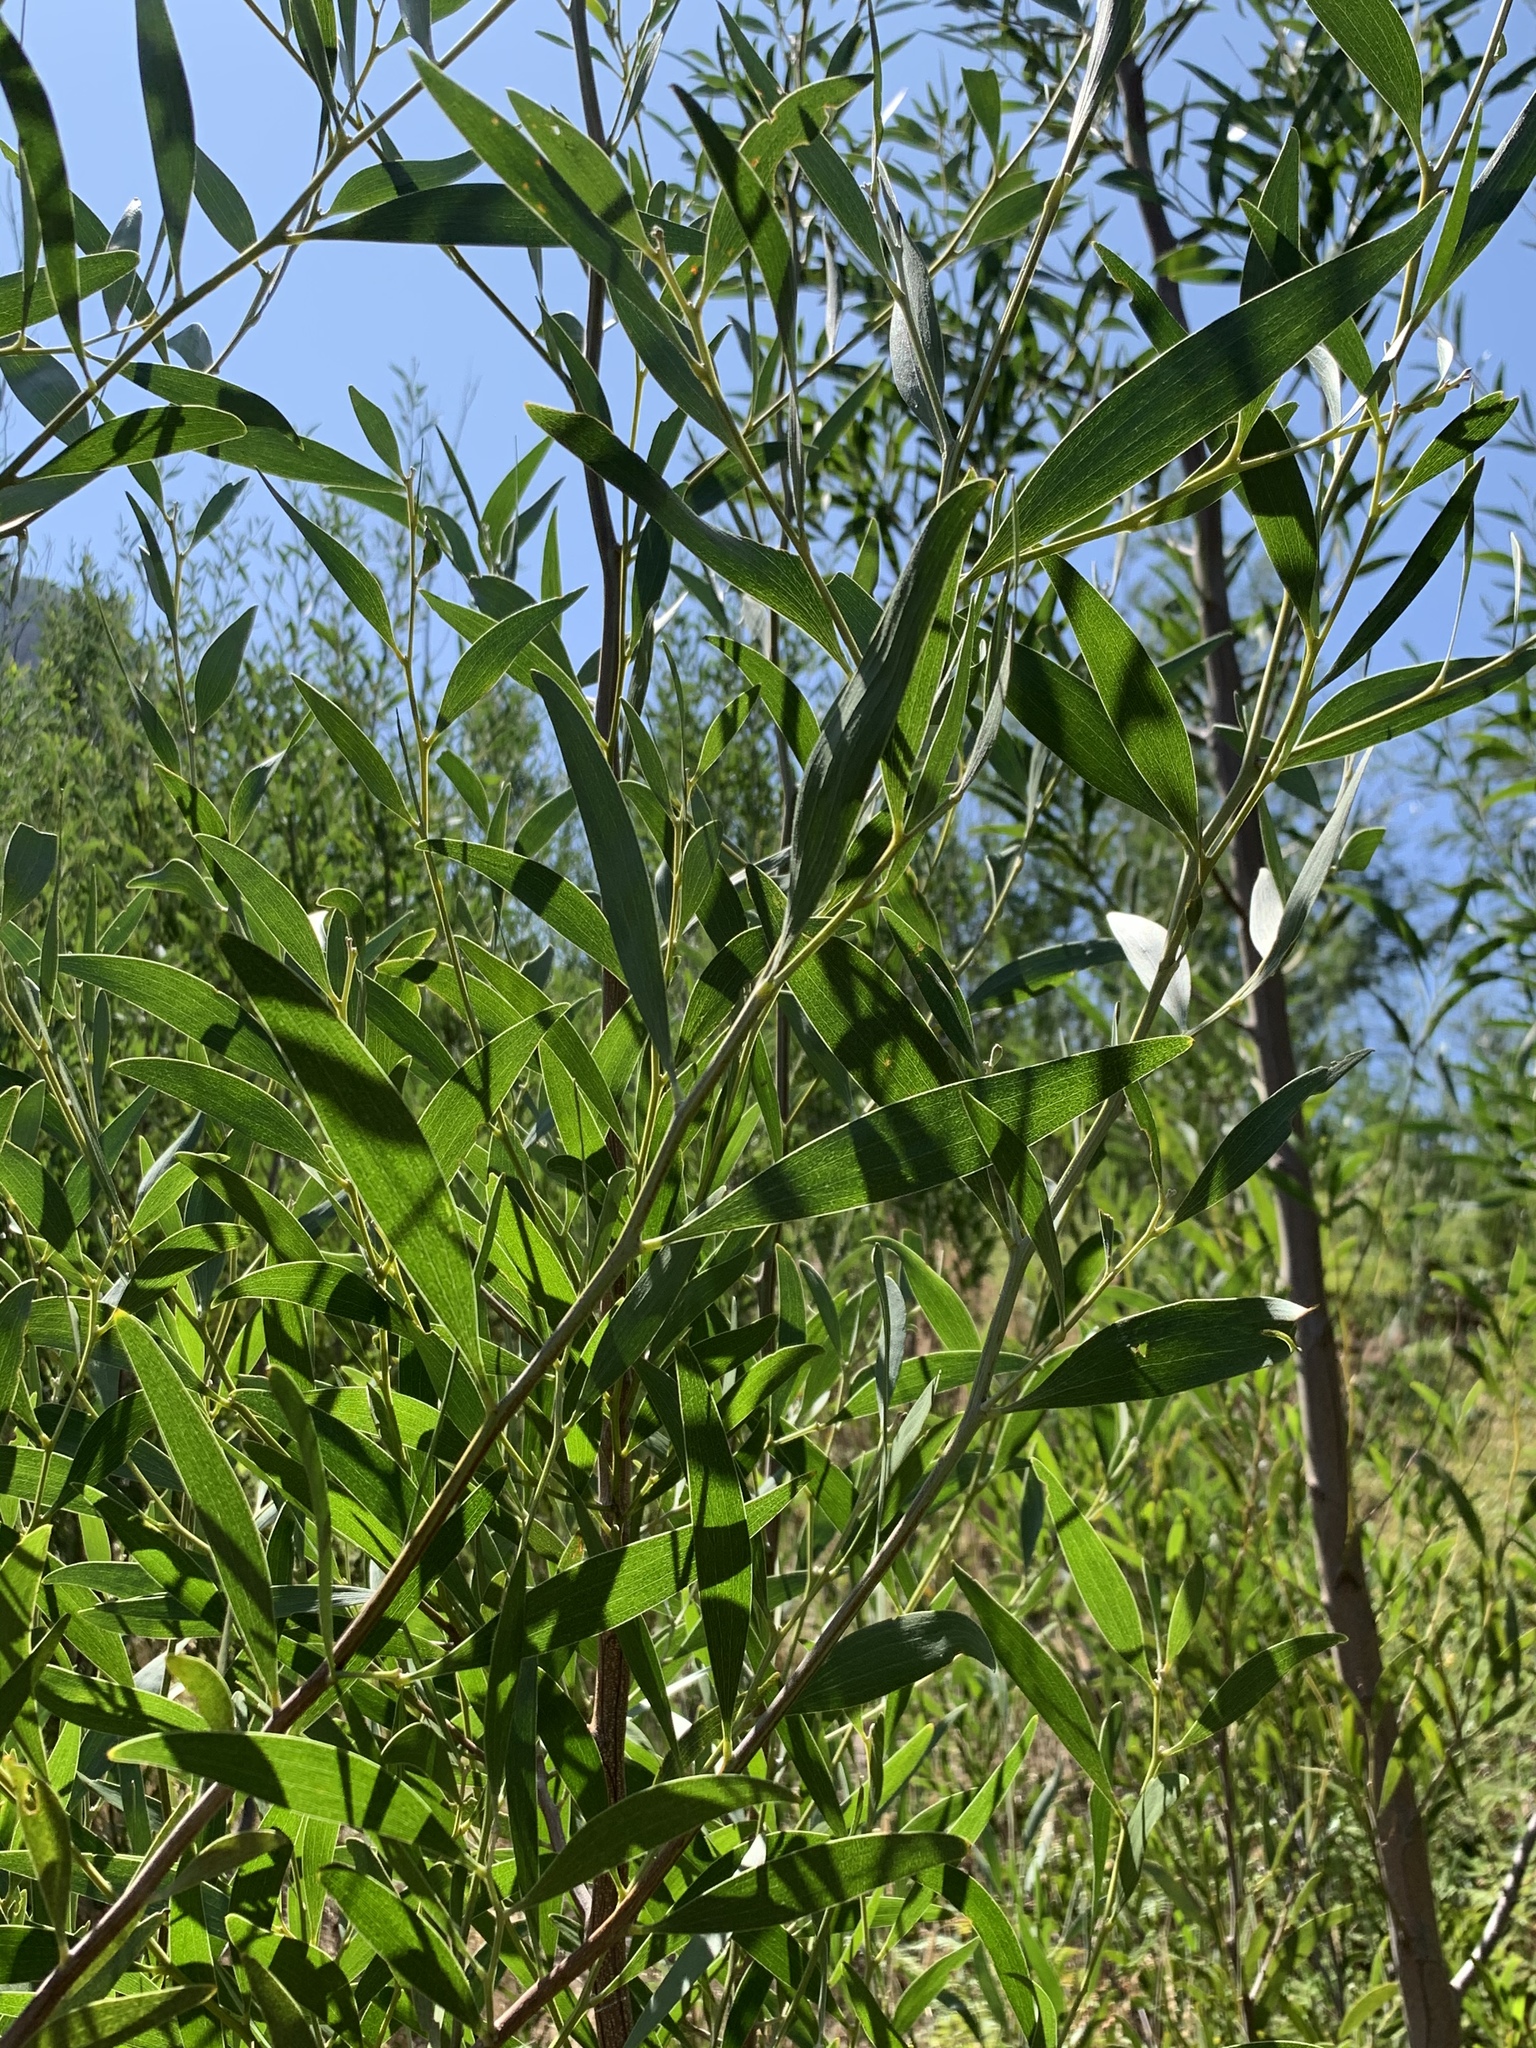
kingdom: Plantae
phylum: Tracheophyta
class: Magnoliopsida
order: Fabales
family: Fabaceae
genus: Acacia
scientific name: Acacia melanoxylon
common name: Blackwood
